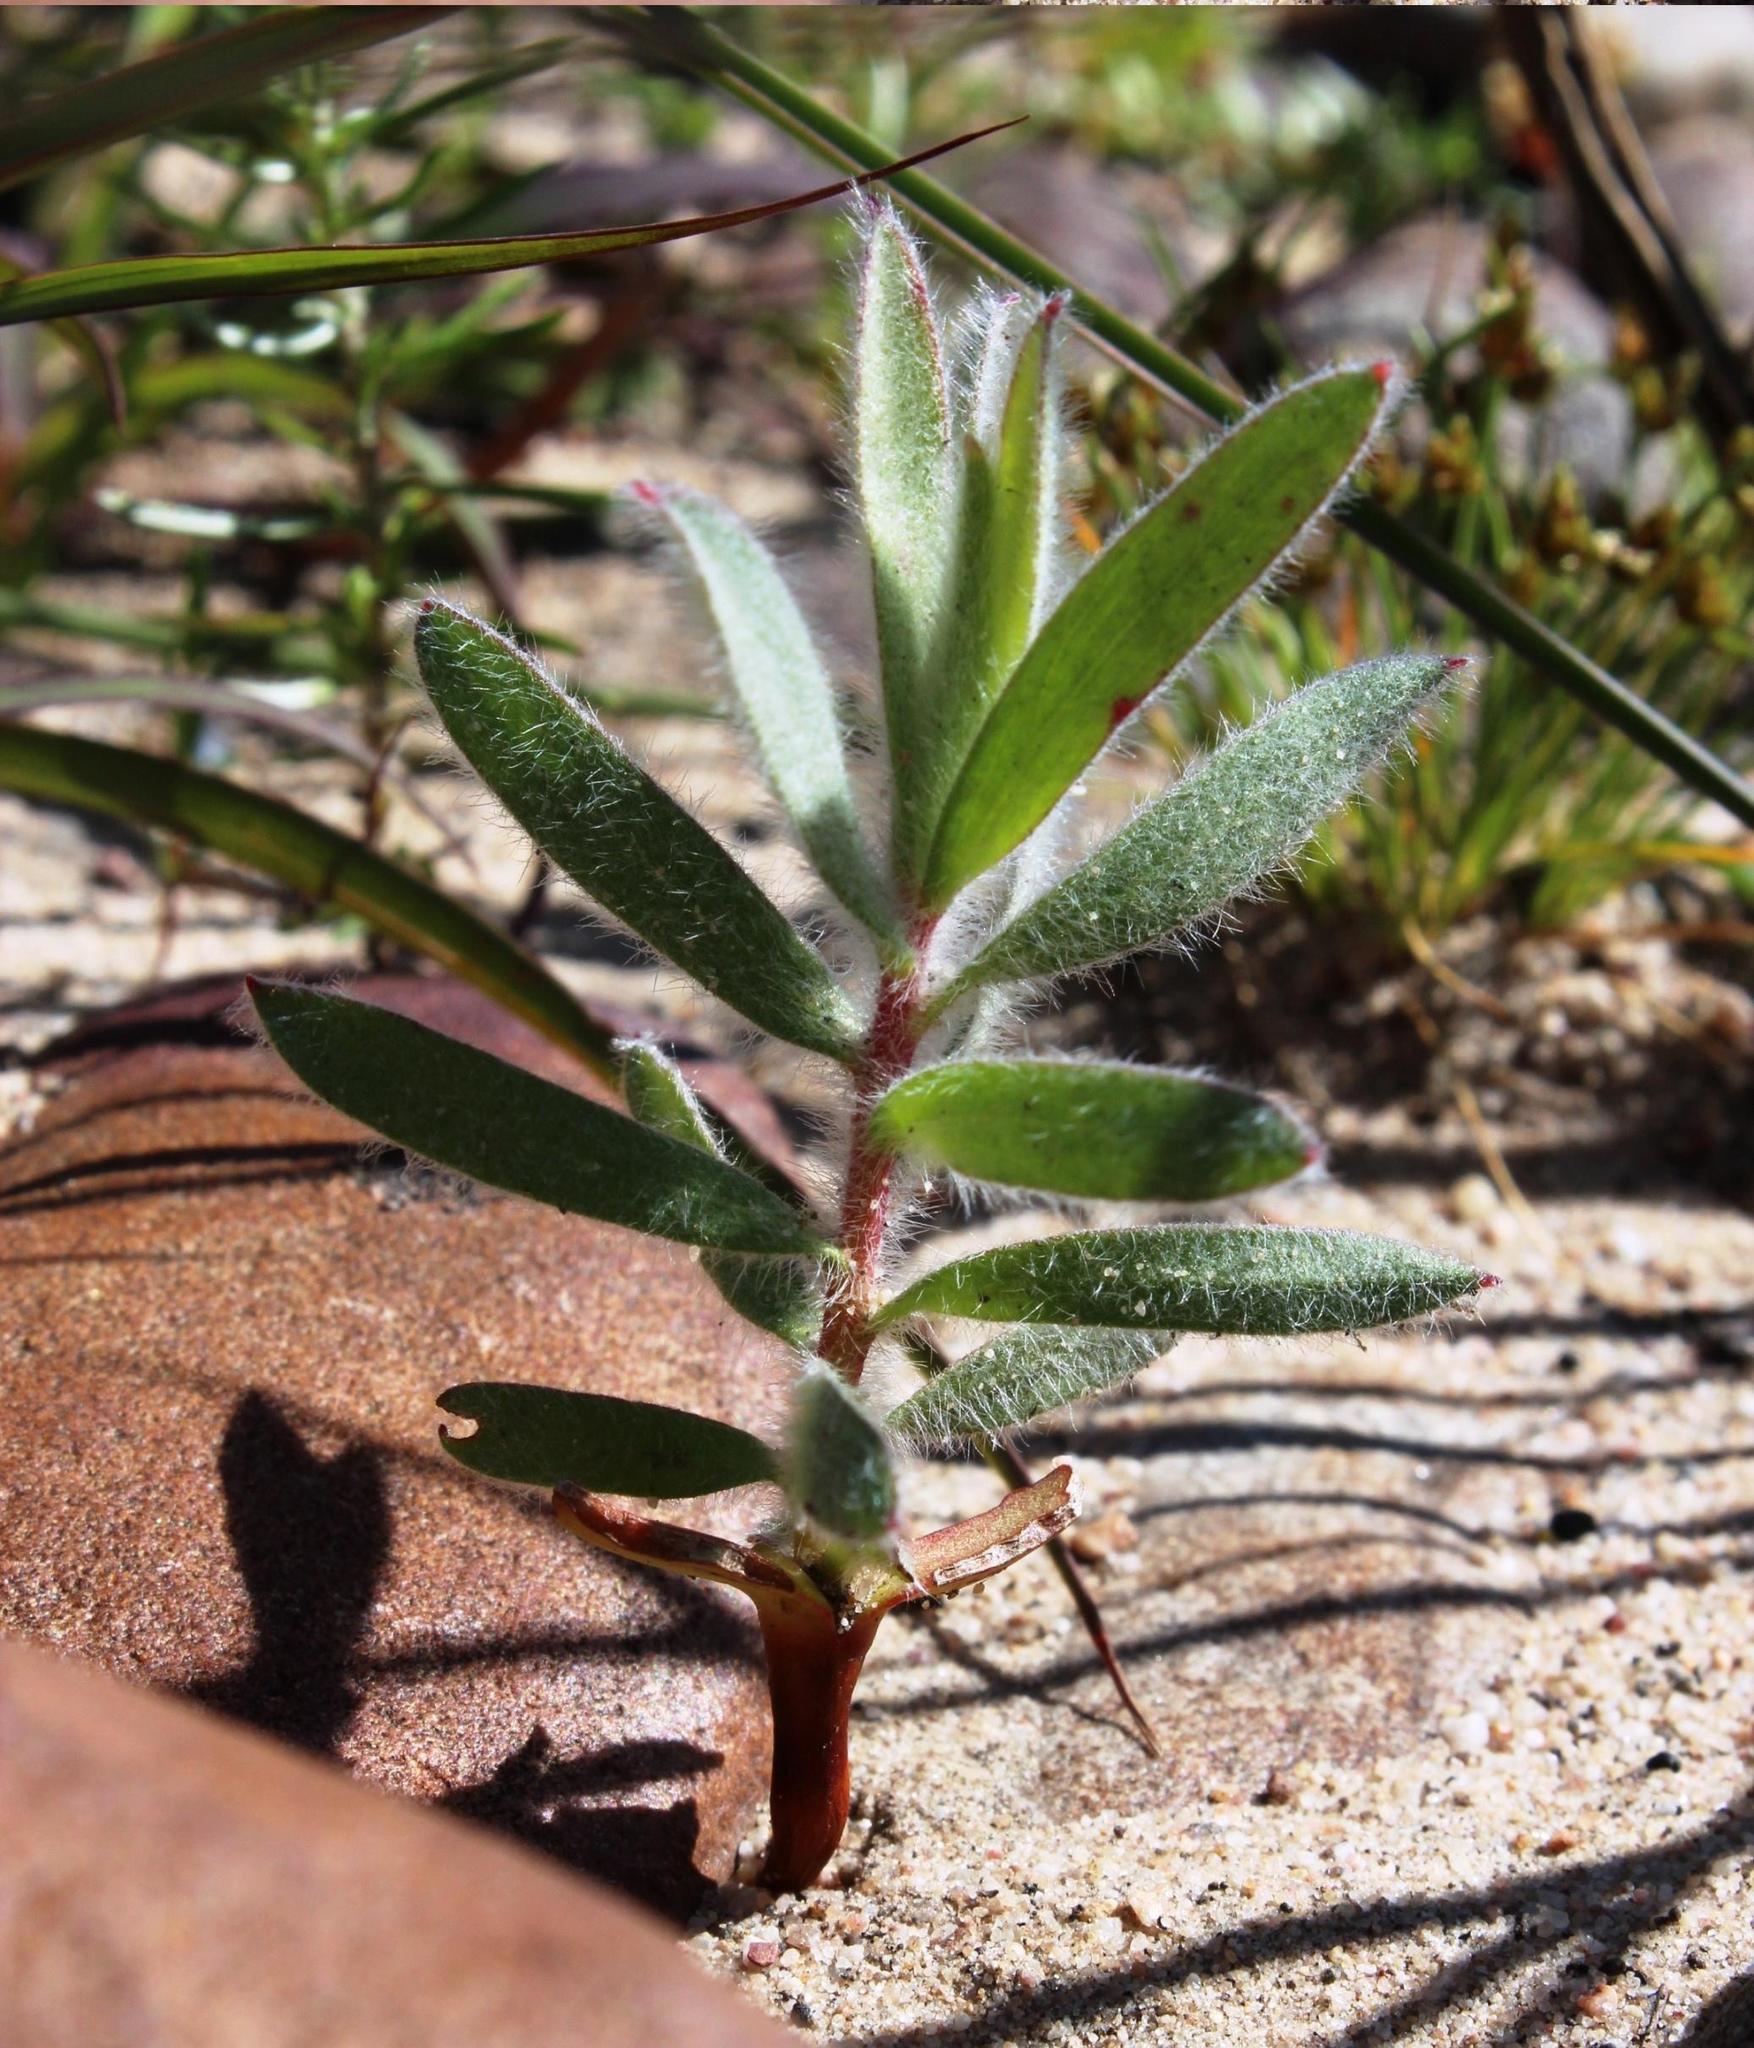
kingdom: Plantae
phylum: Tracheophyta
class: Magnoliopsida
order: Proteales
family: Proteaceae
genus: Leucospermum
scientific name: Leucospermum calligerum
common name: Arid pincushion
